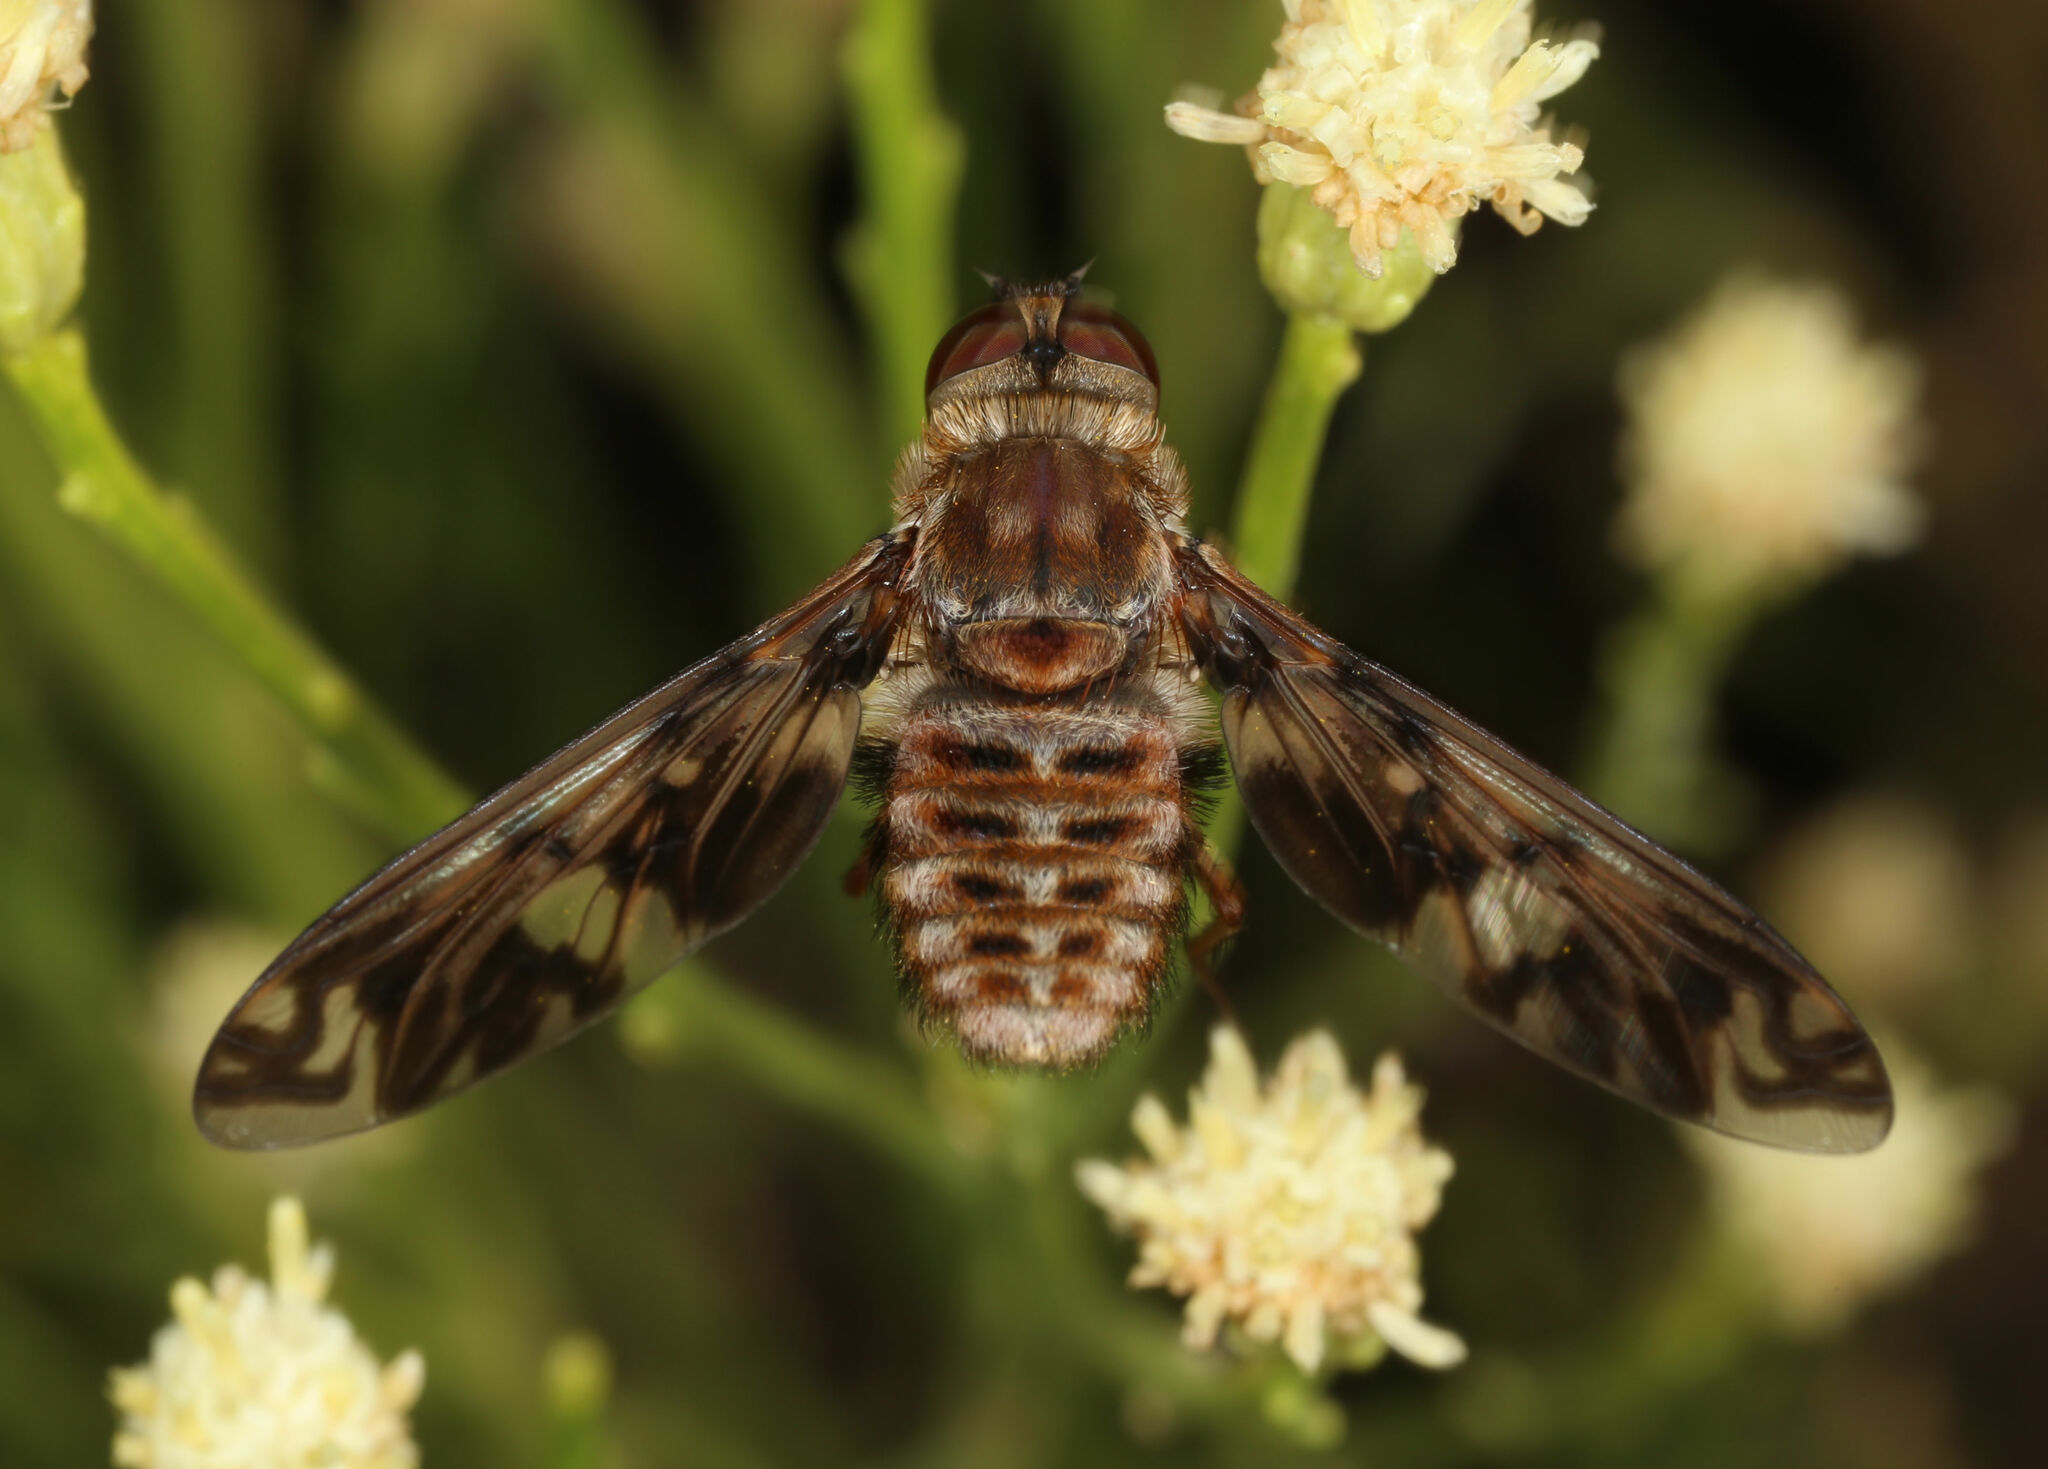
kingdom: Animalia
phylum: Arthropoda
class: Insecta
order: Diptera
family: Bombyliidae
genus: Poecilanthrax
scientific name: Poecilanthrax poecilogaster
